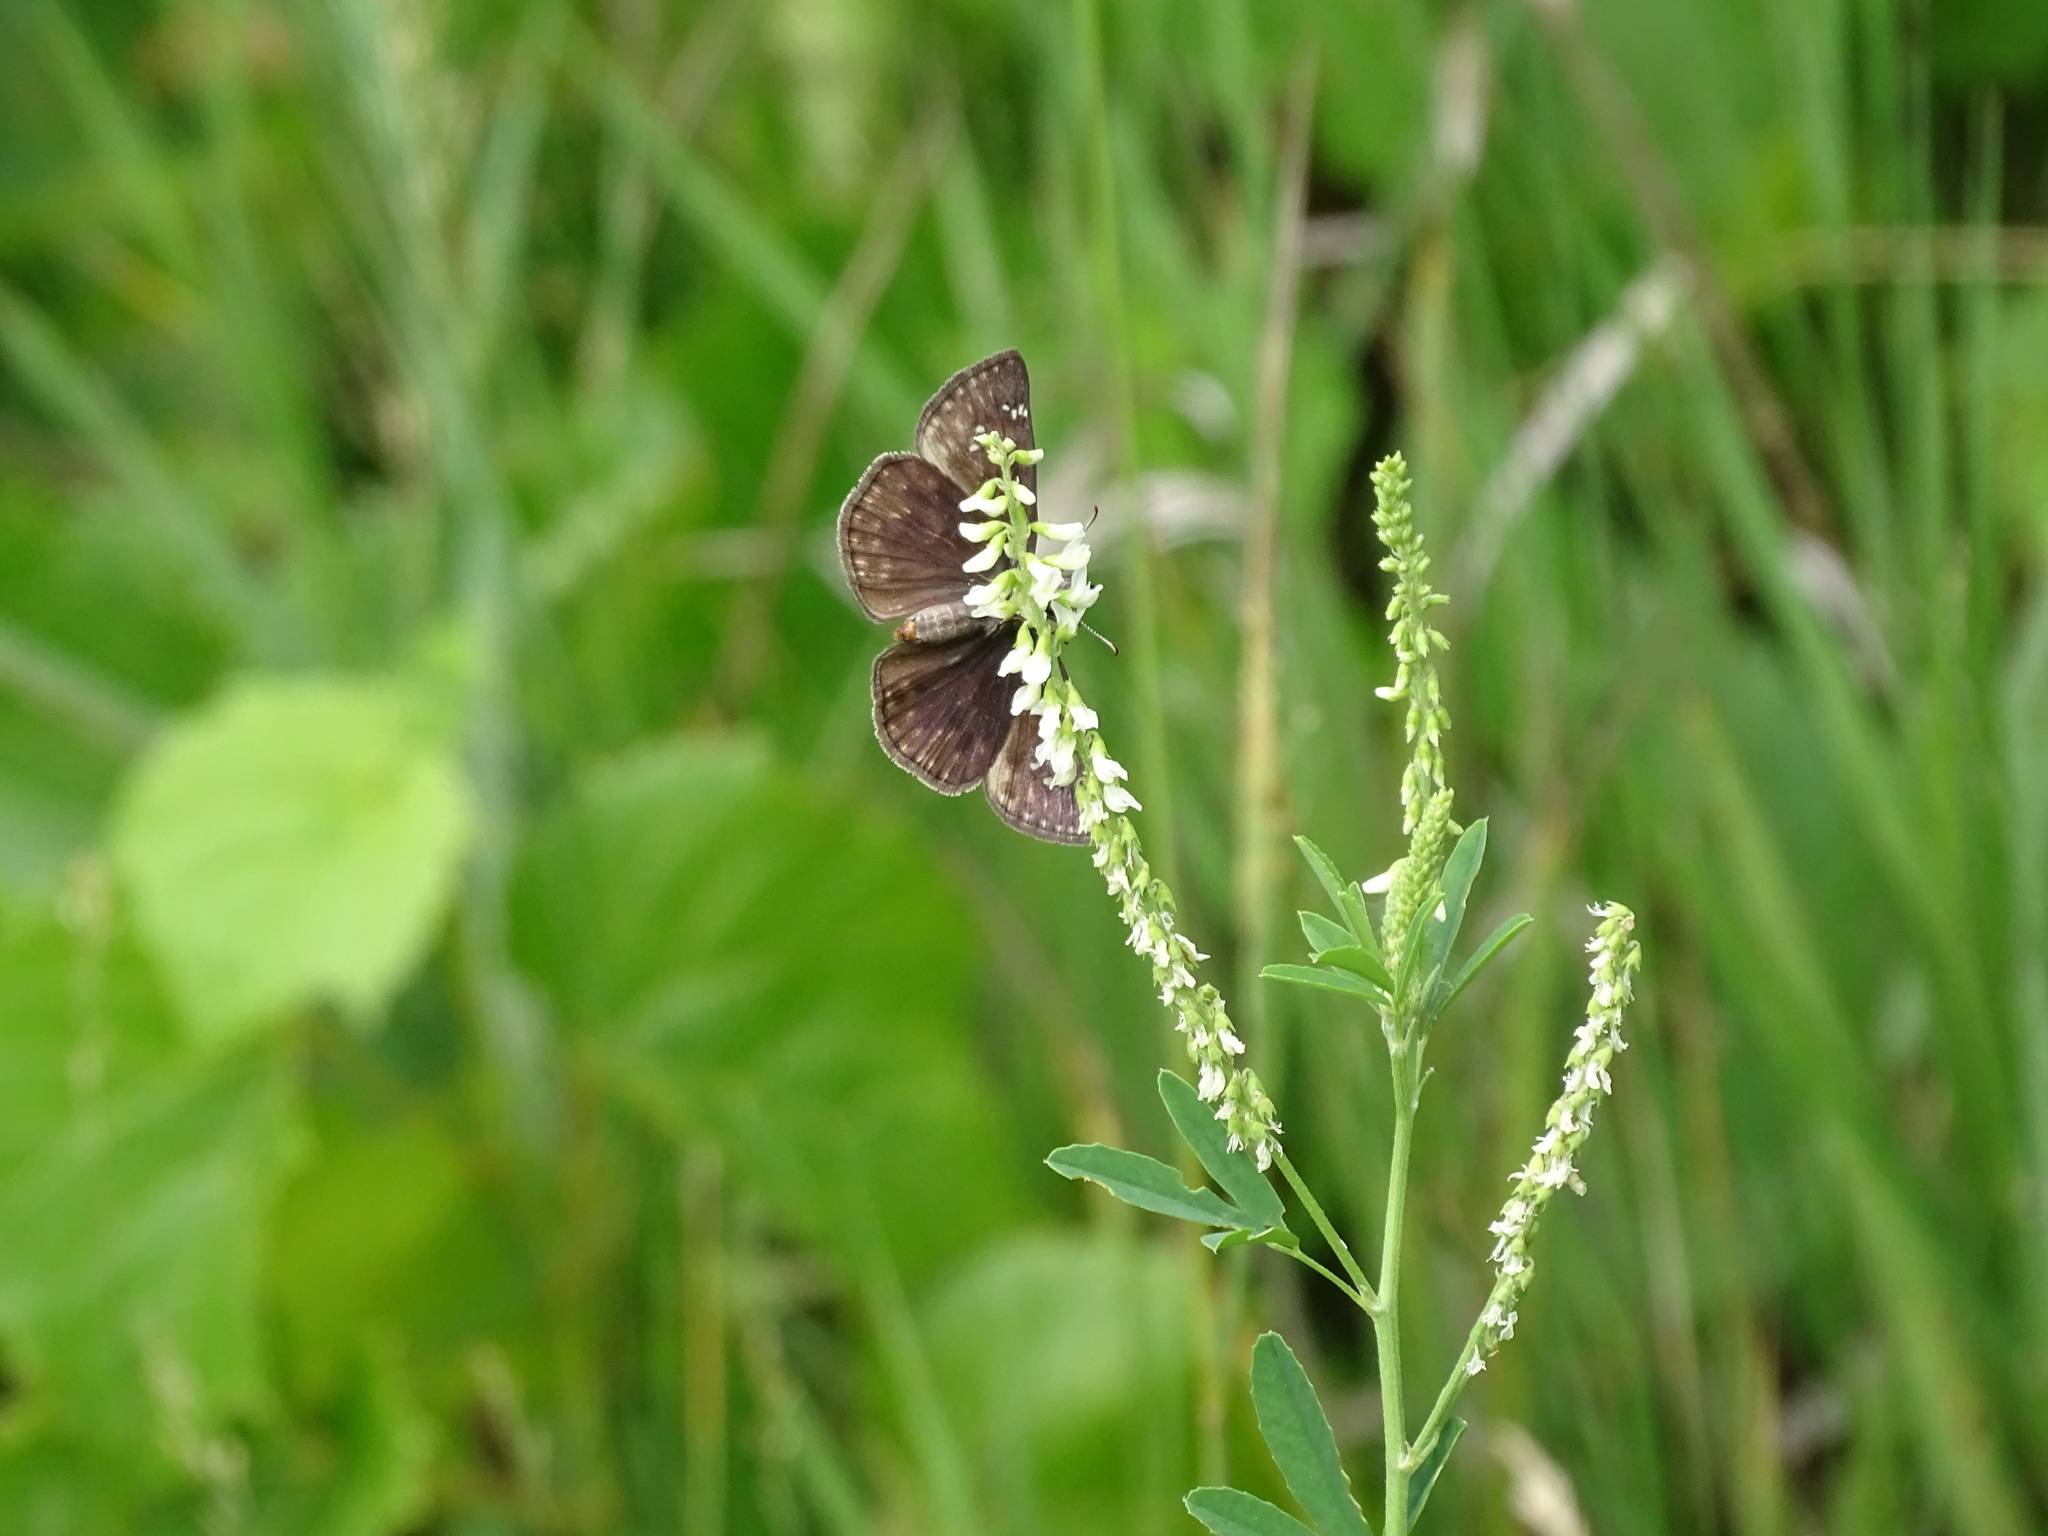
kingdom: Animalia
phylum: Arthropoda
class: Insecta
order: Lepidoptera
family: Hesperiidae
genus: Erynnis
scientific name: Erynnis baptisiae
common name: Wild indigo duskywing
